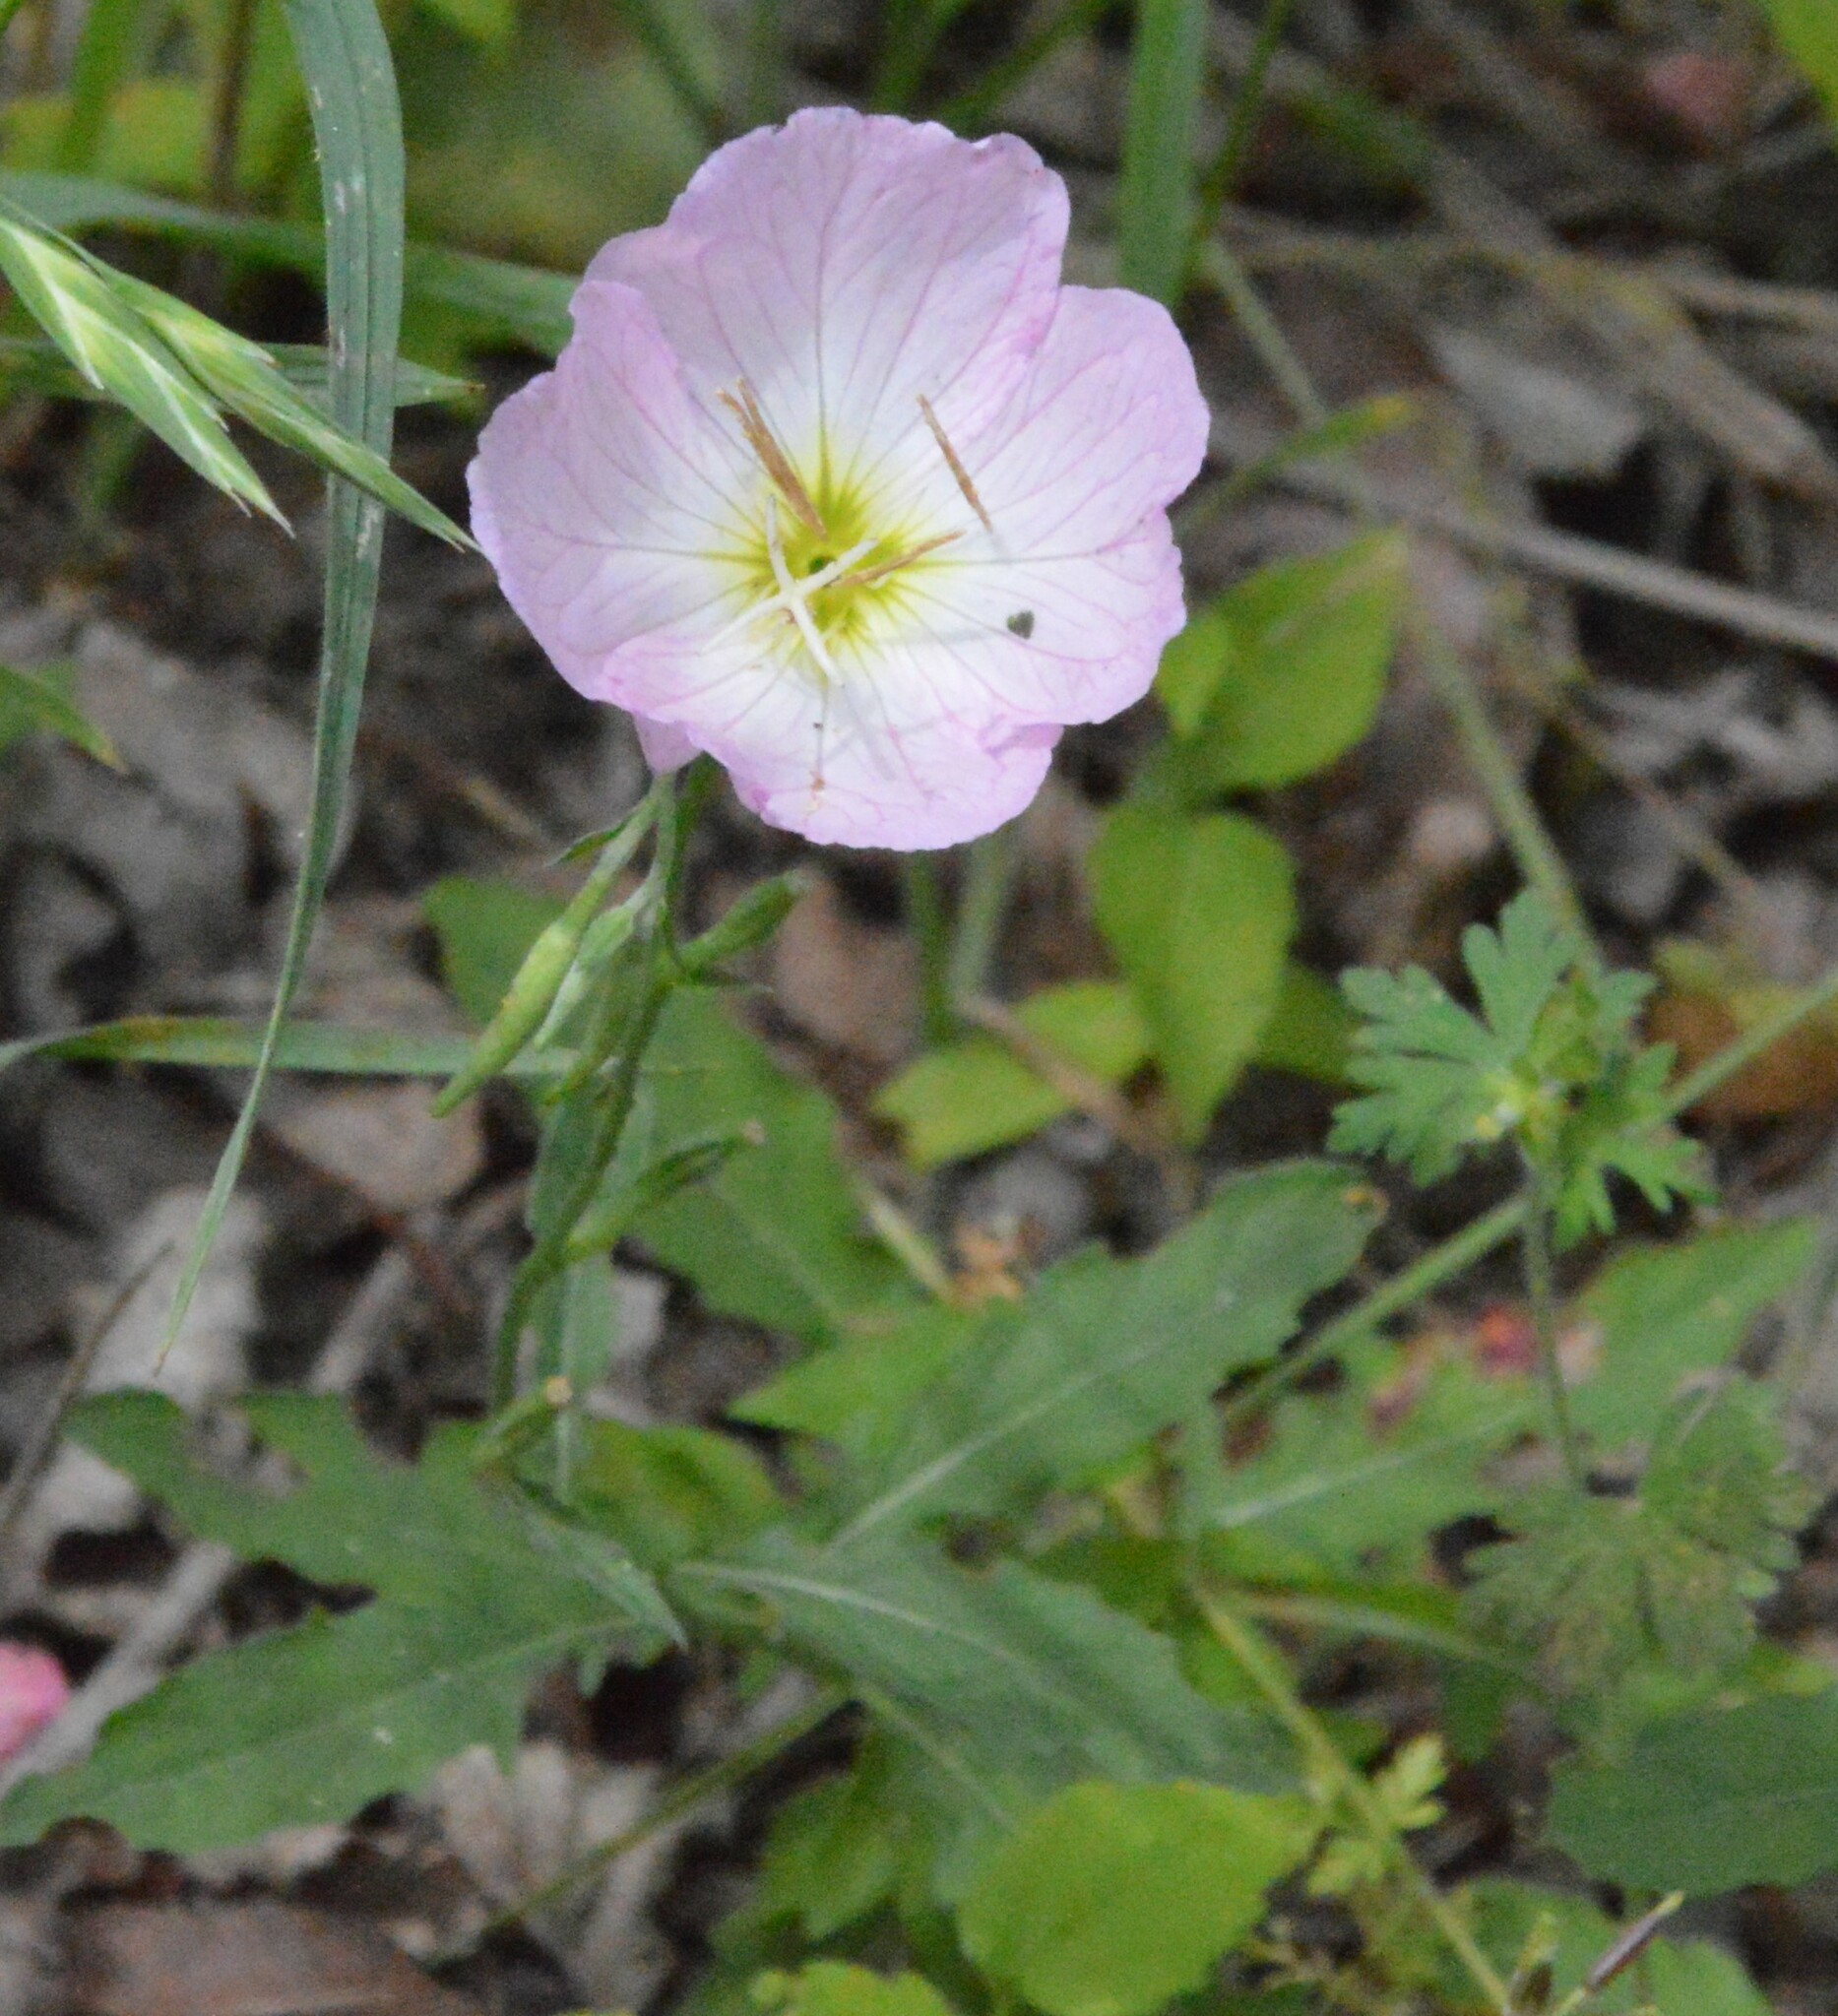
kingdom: Plantae
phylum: Tracheophyta
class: Magnoliopsida
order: Myrtales
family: Onagraceae
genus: Oenothera
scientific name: Oenothera speciosa
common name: White evening-primrose
